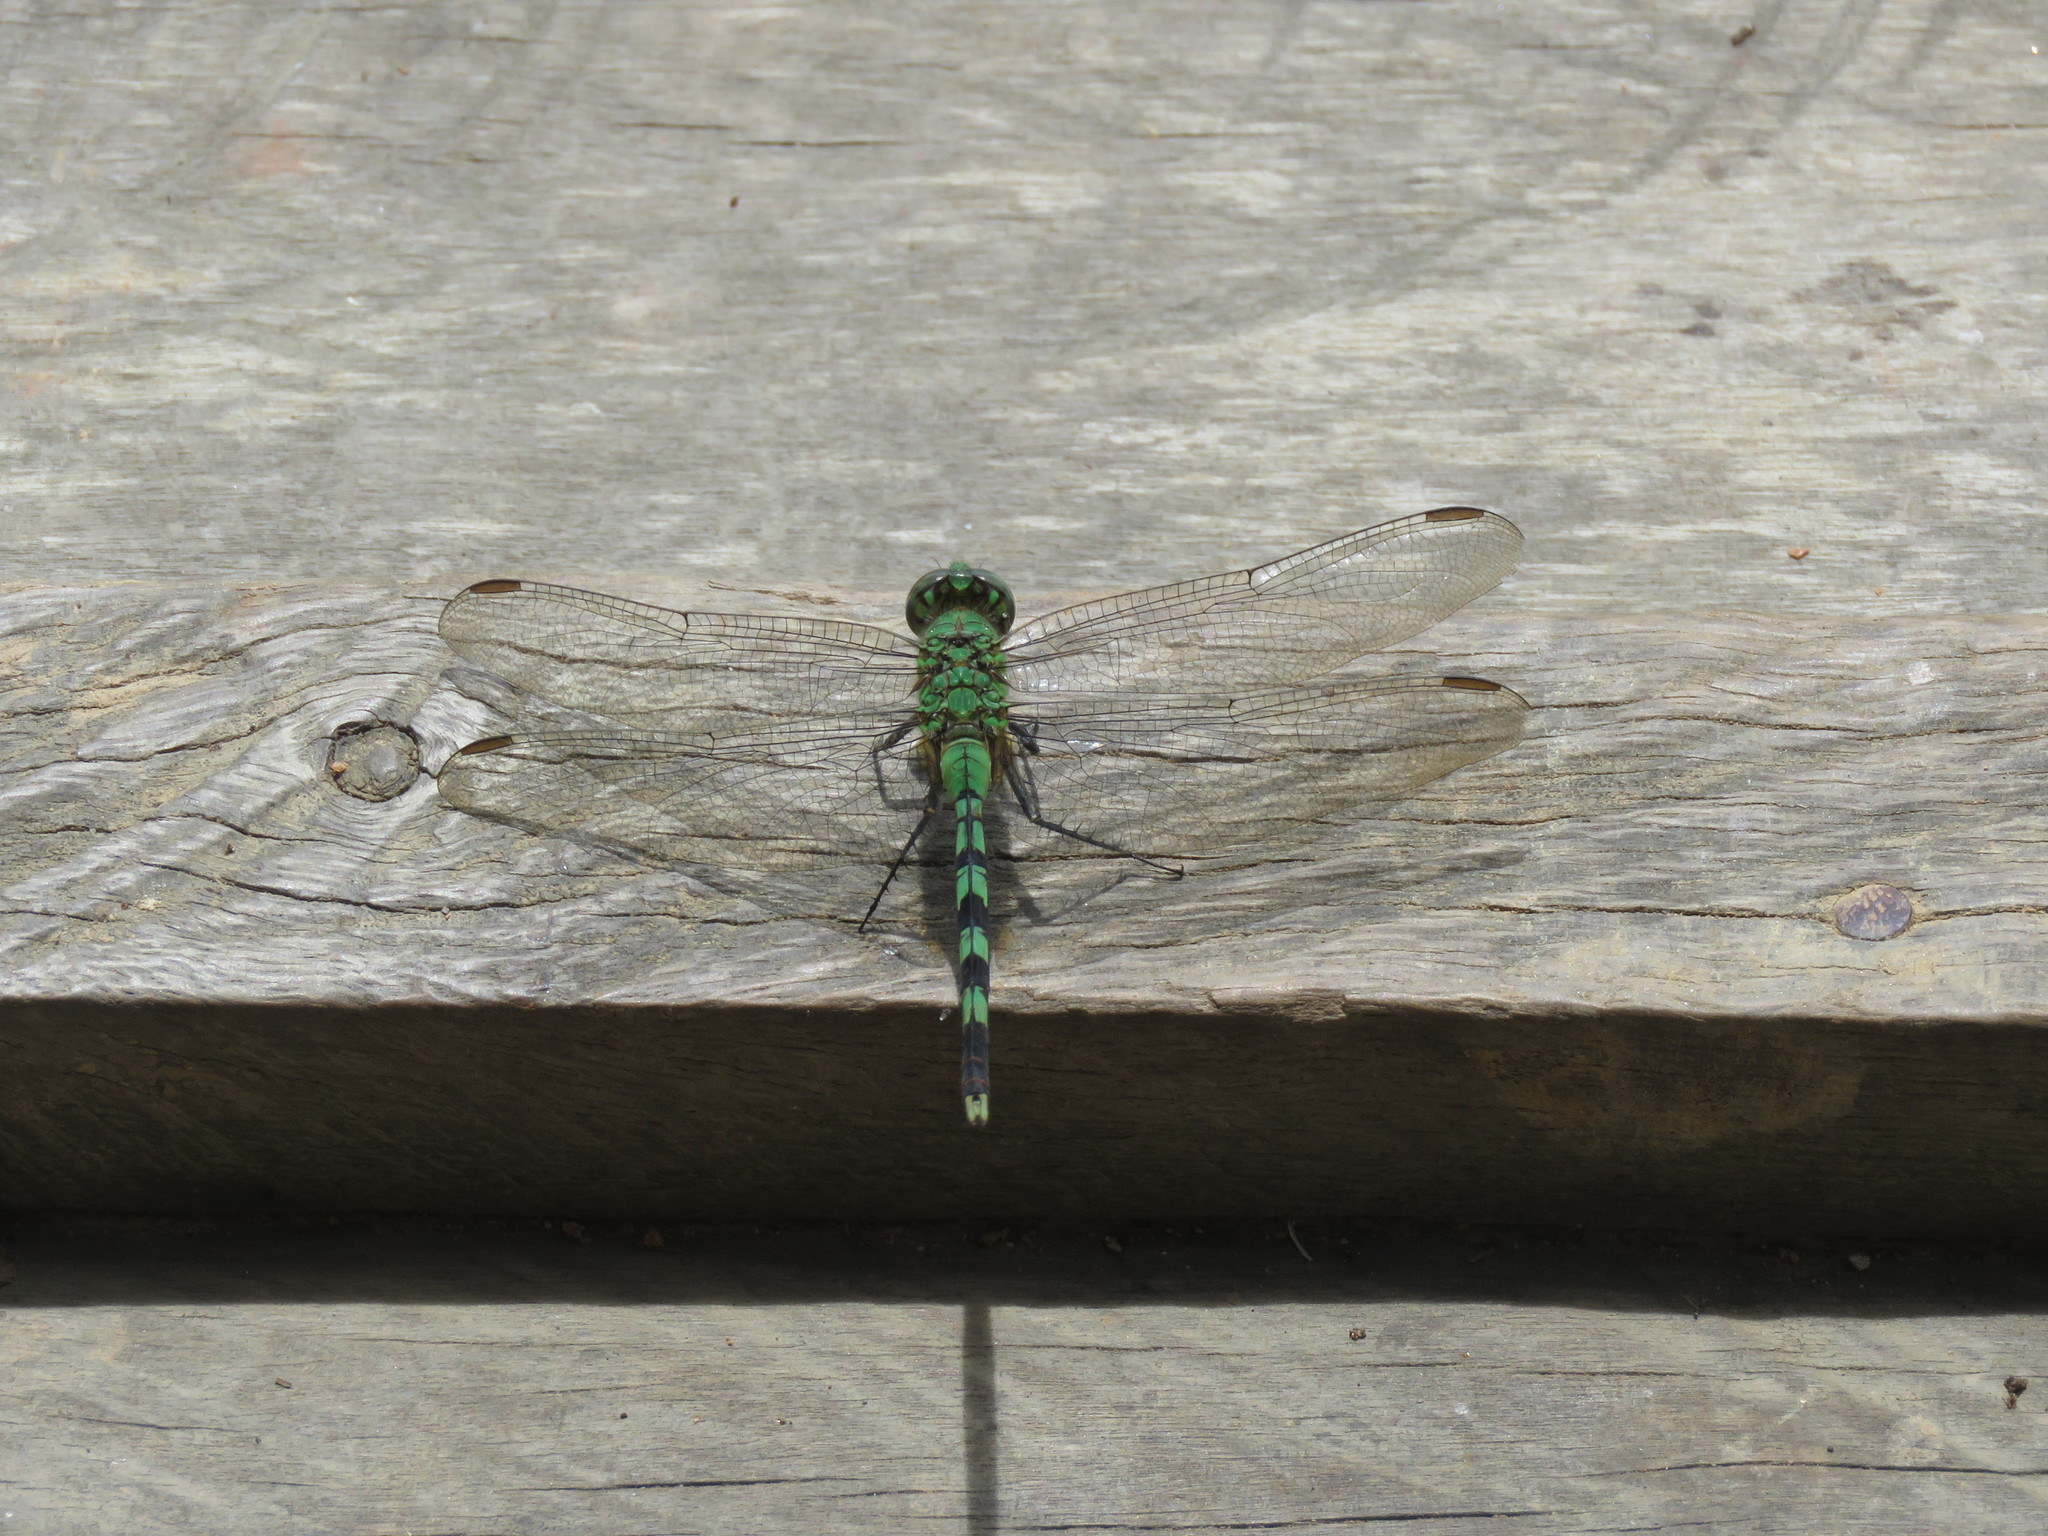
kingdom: Animalia
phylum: Arthropoda
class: Insecta
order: Odonata
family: Libellulidae
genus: Erythemis
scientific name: Erythemis vesiculosa
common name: Great pondhawk
